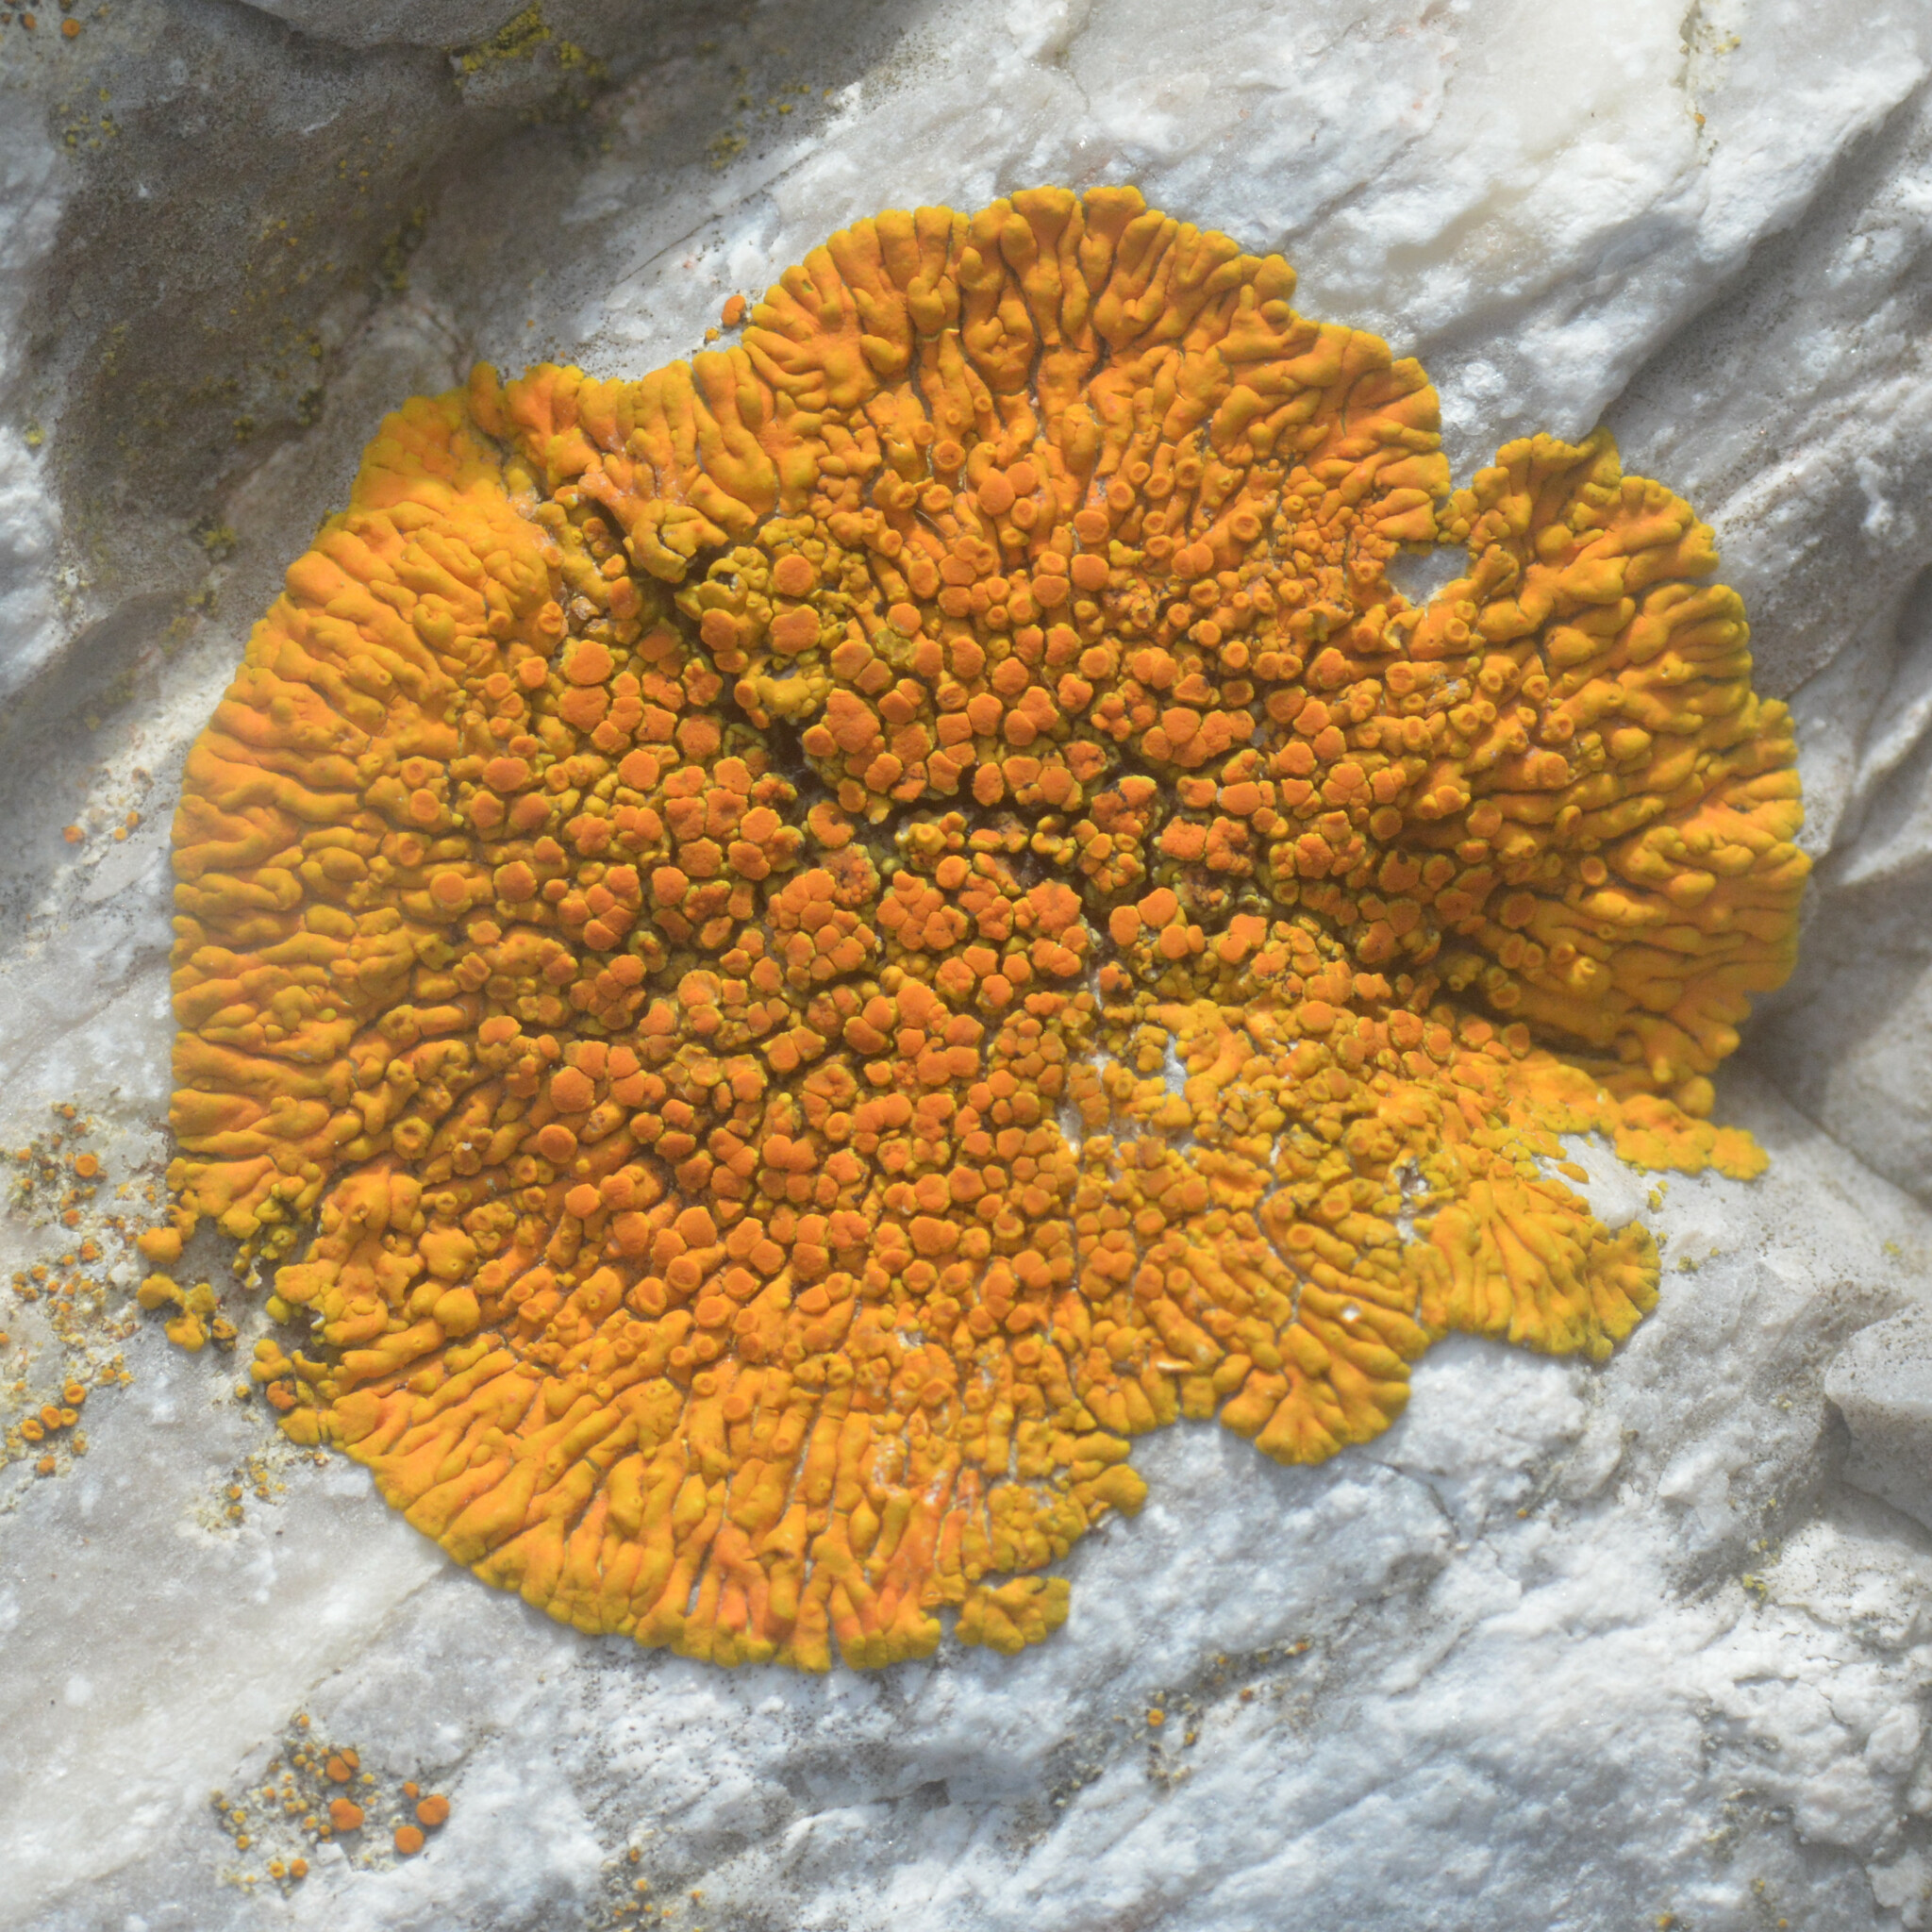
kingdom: Fungi
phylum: Ascomycota
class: Lecanoromycetes
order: Teloschistales
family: Teloschistaceae
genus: Variospora
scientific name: Variospora thallincola
